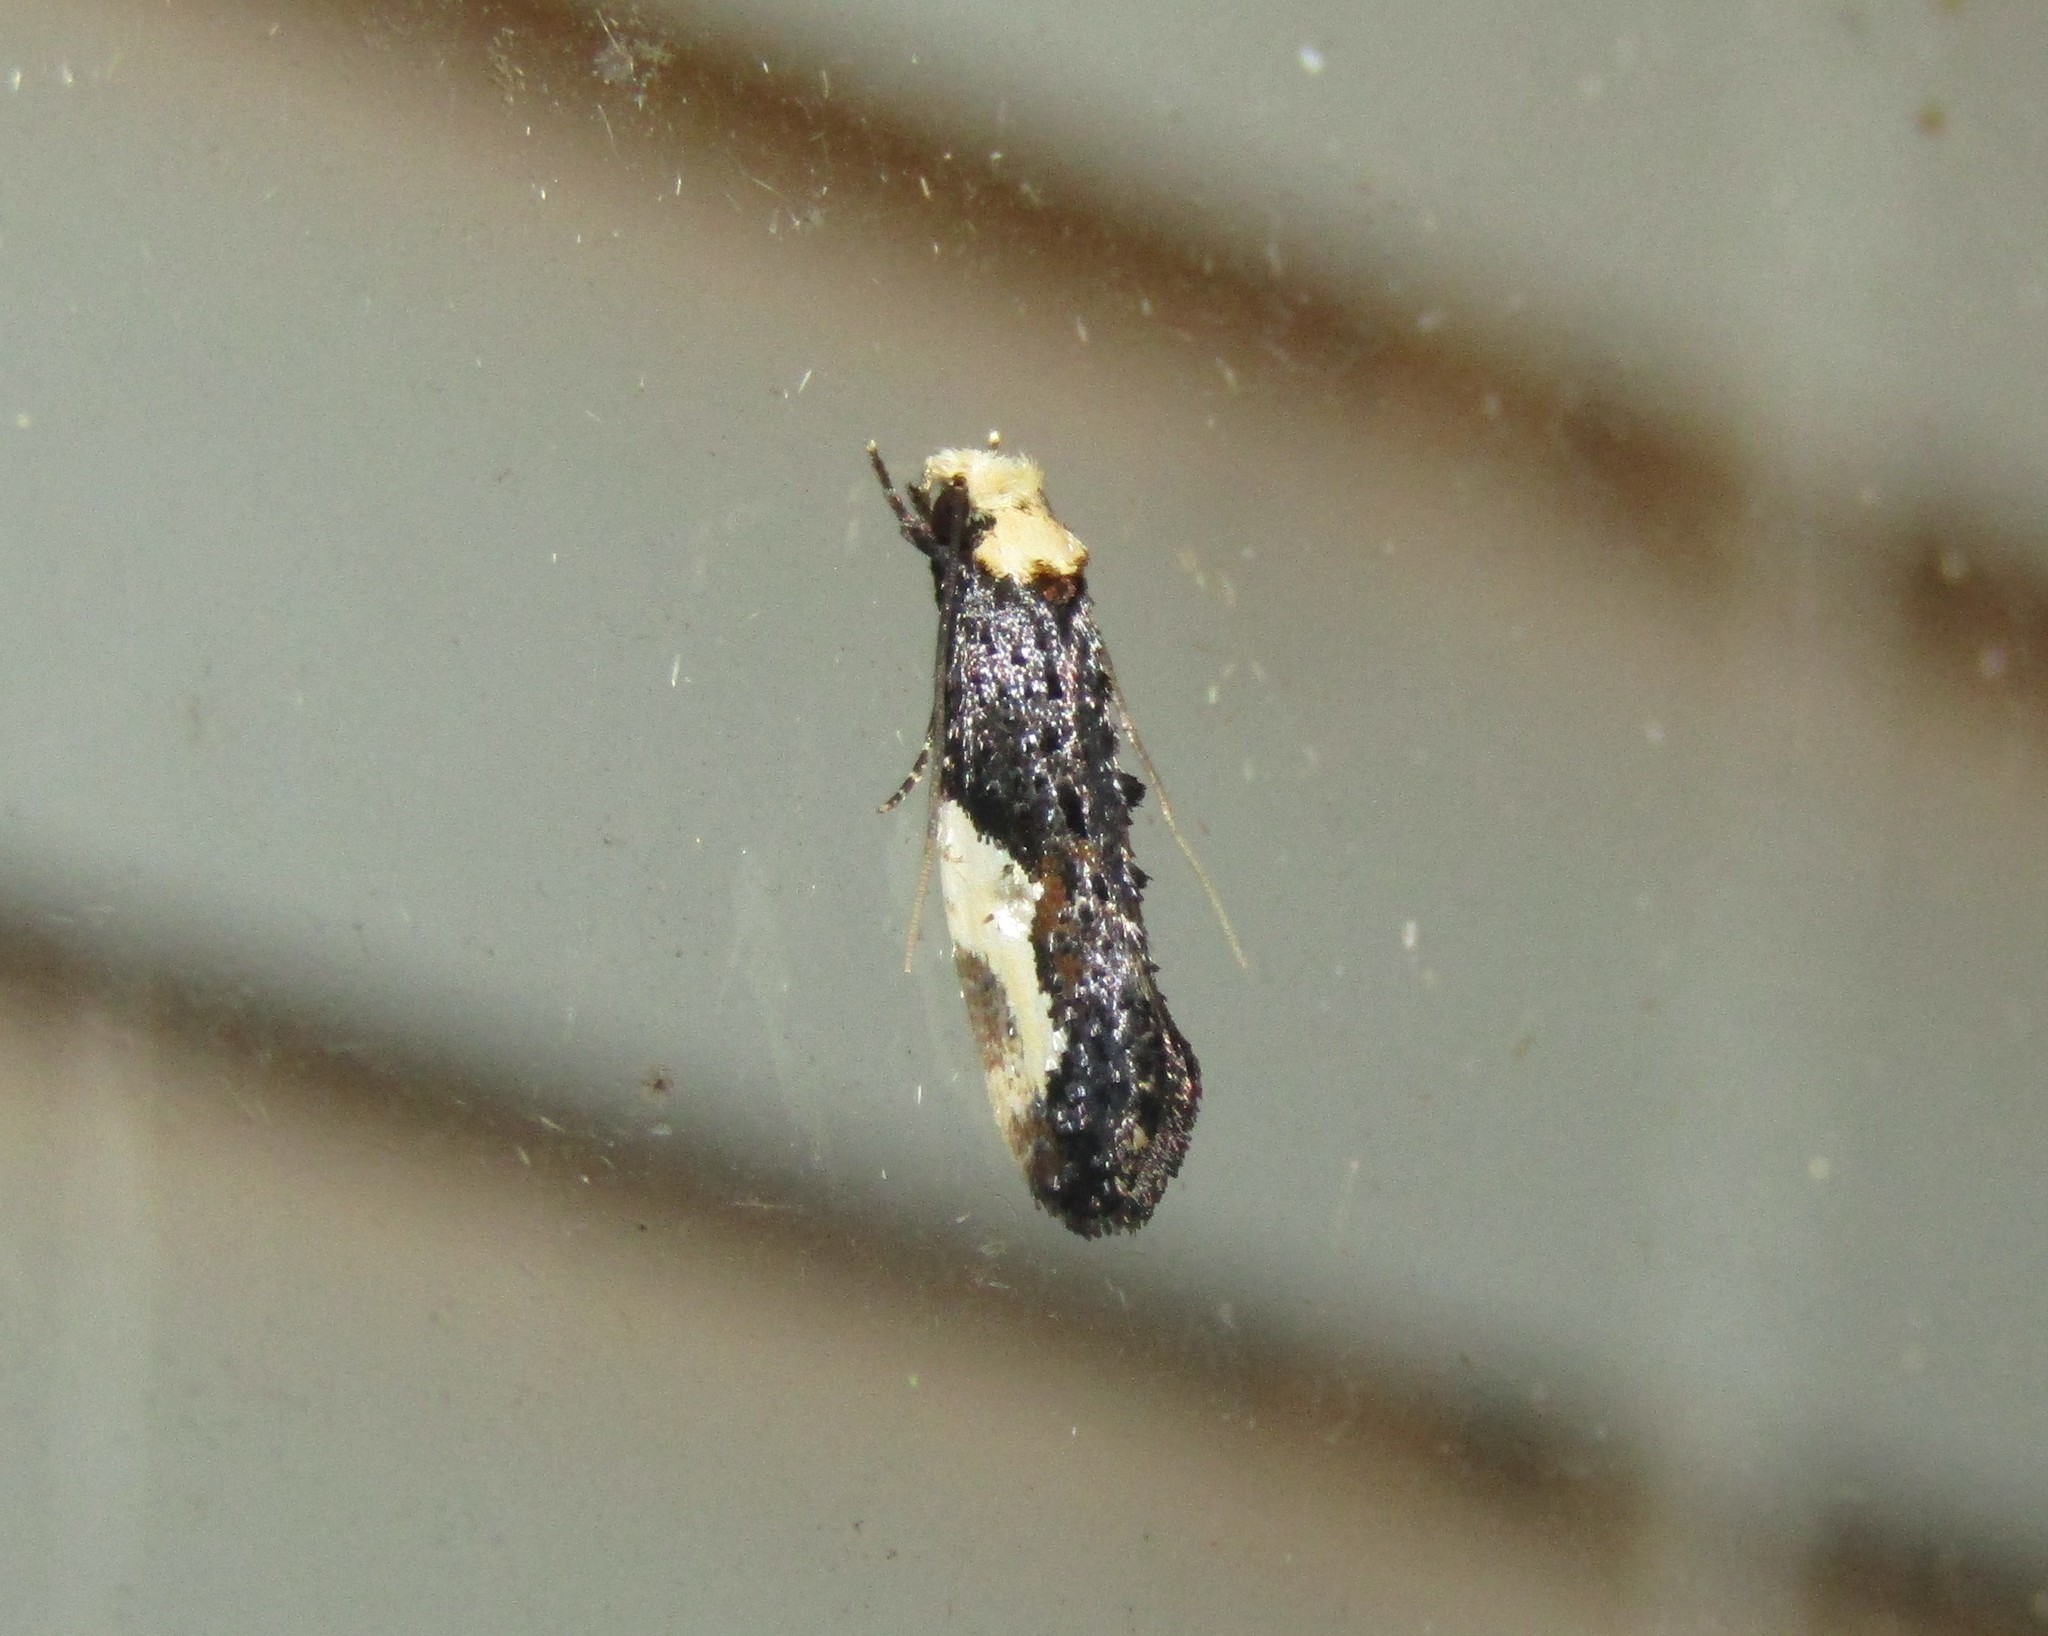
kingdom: Animalia
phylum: Arthropoda
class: Insecta
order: Lepidoptera
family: Tineidae
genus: Monopis
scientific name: Monopis longella
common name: Pavlovski's monopis moth
